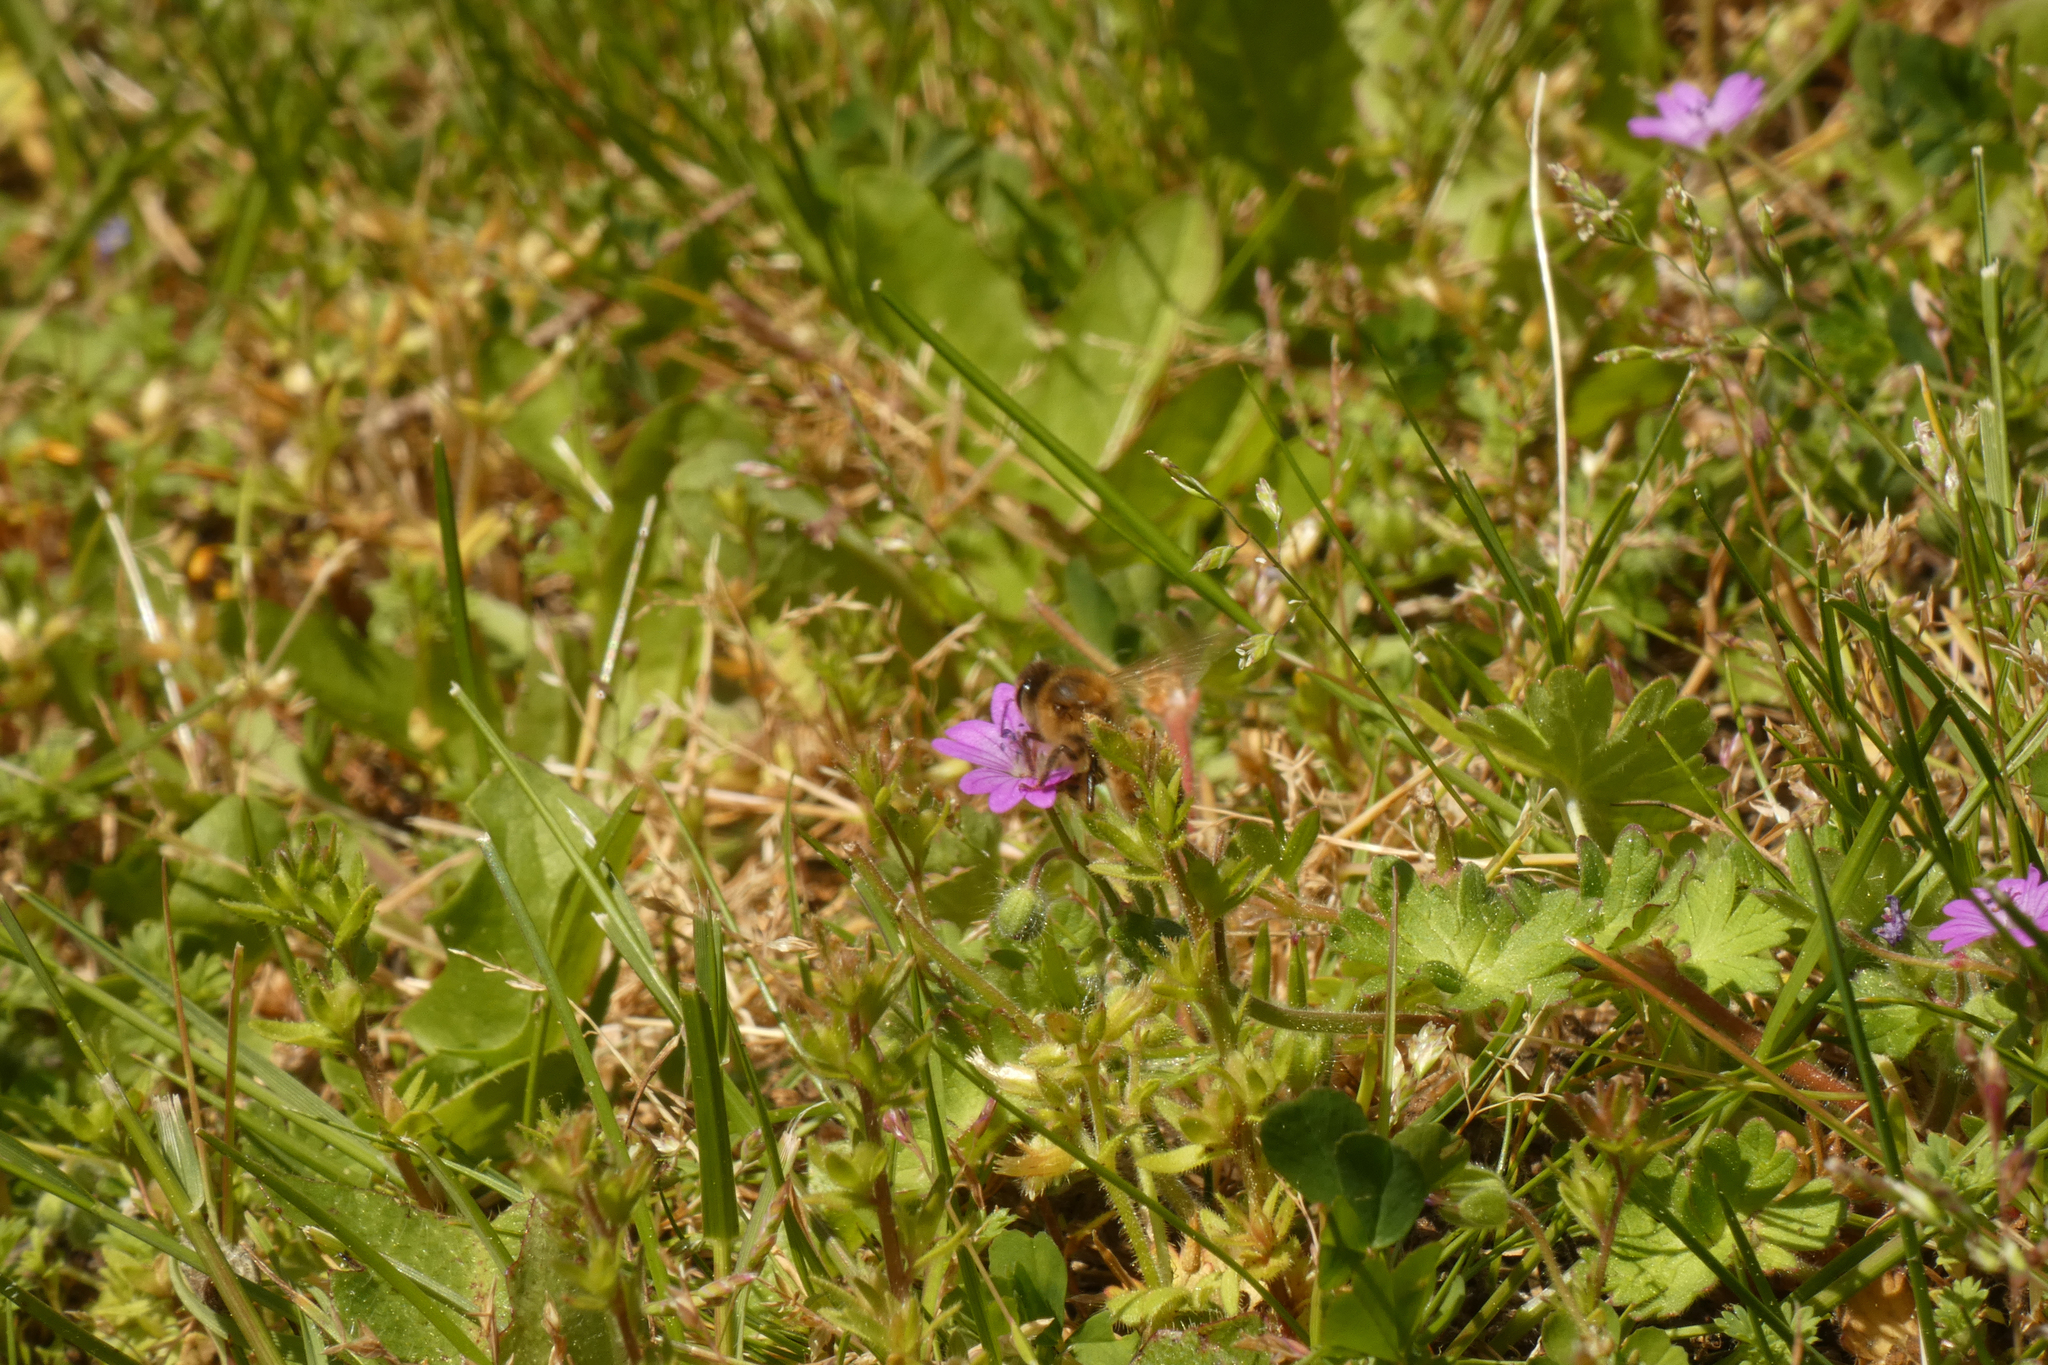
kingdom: Animalia
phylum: Arthropoda
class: Insecta
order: Hymenoptera
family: Apidae
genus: Apis
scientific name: Apis mellifera
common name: Honey bee
